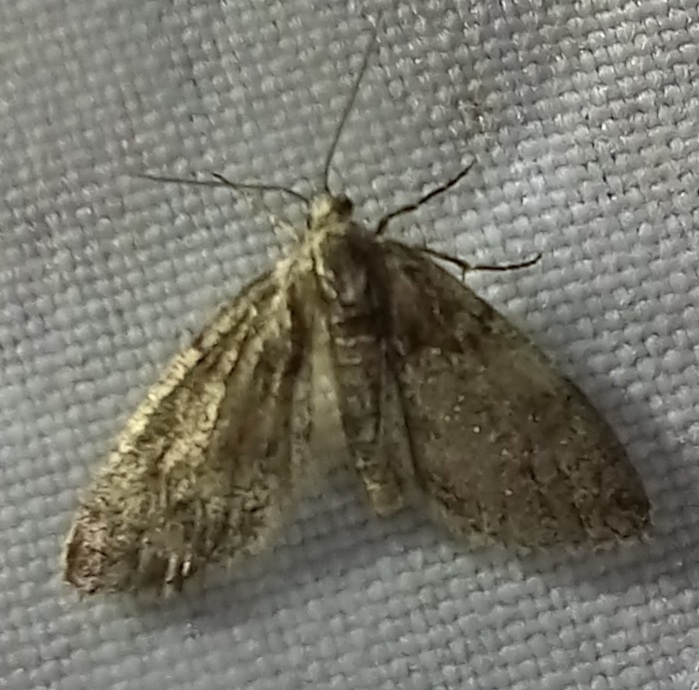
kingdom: Animalia
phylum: Arthropoda
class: Insecta
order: Lepidoptera
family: Geometridae
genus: Tephronia
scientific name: Tephronia sepiaria
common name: Dusky carpet
